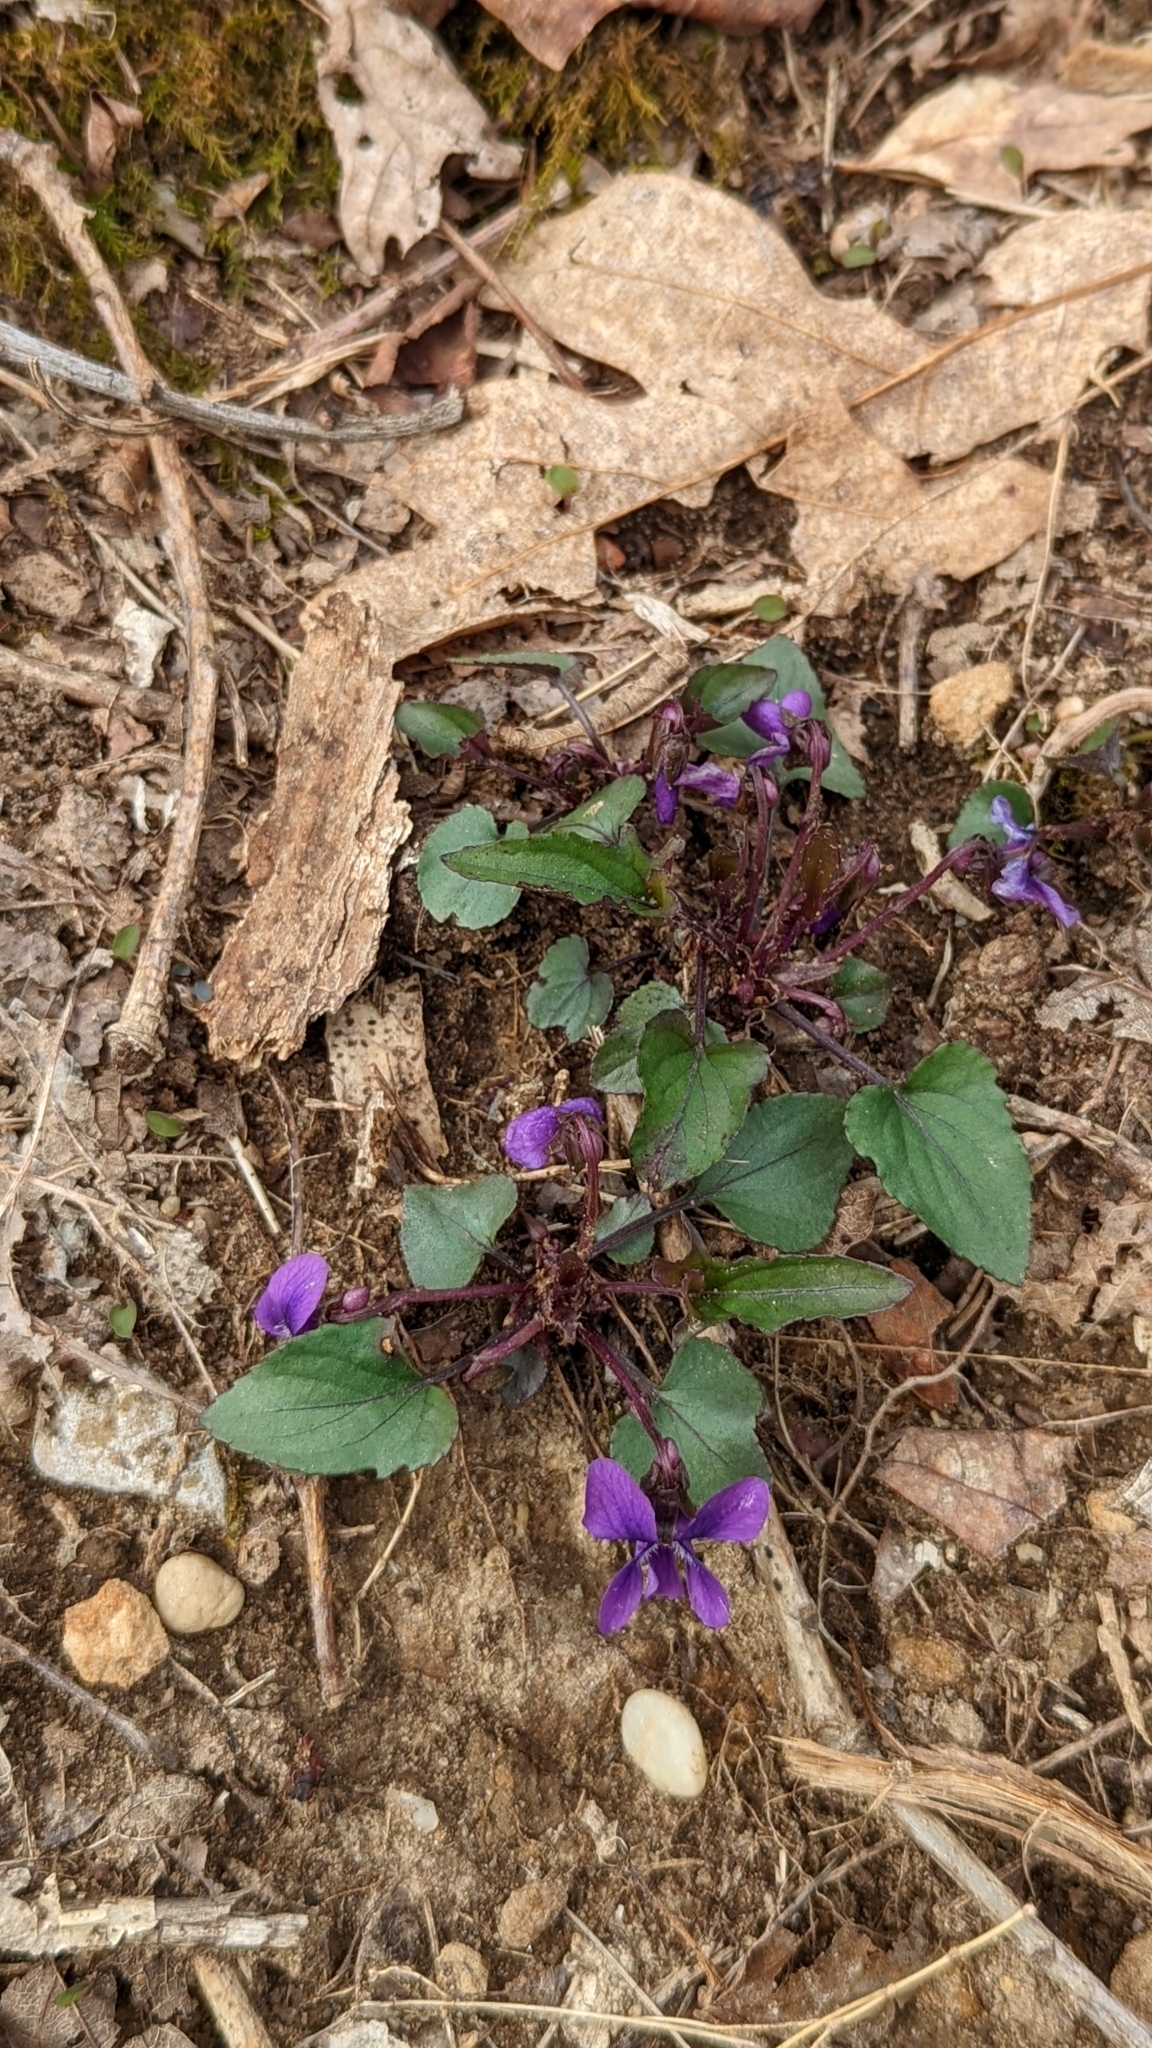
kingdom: Plantae
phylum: Tracheophyta
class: Magnoliopsida
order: Malpighiales
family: Violaceae
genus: Viola
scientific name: Viola palmata
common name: Early blue violet
